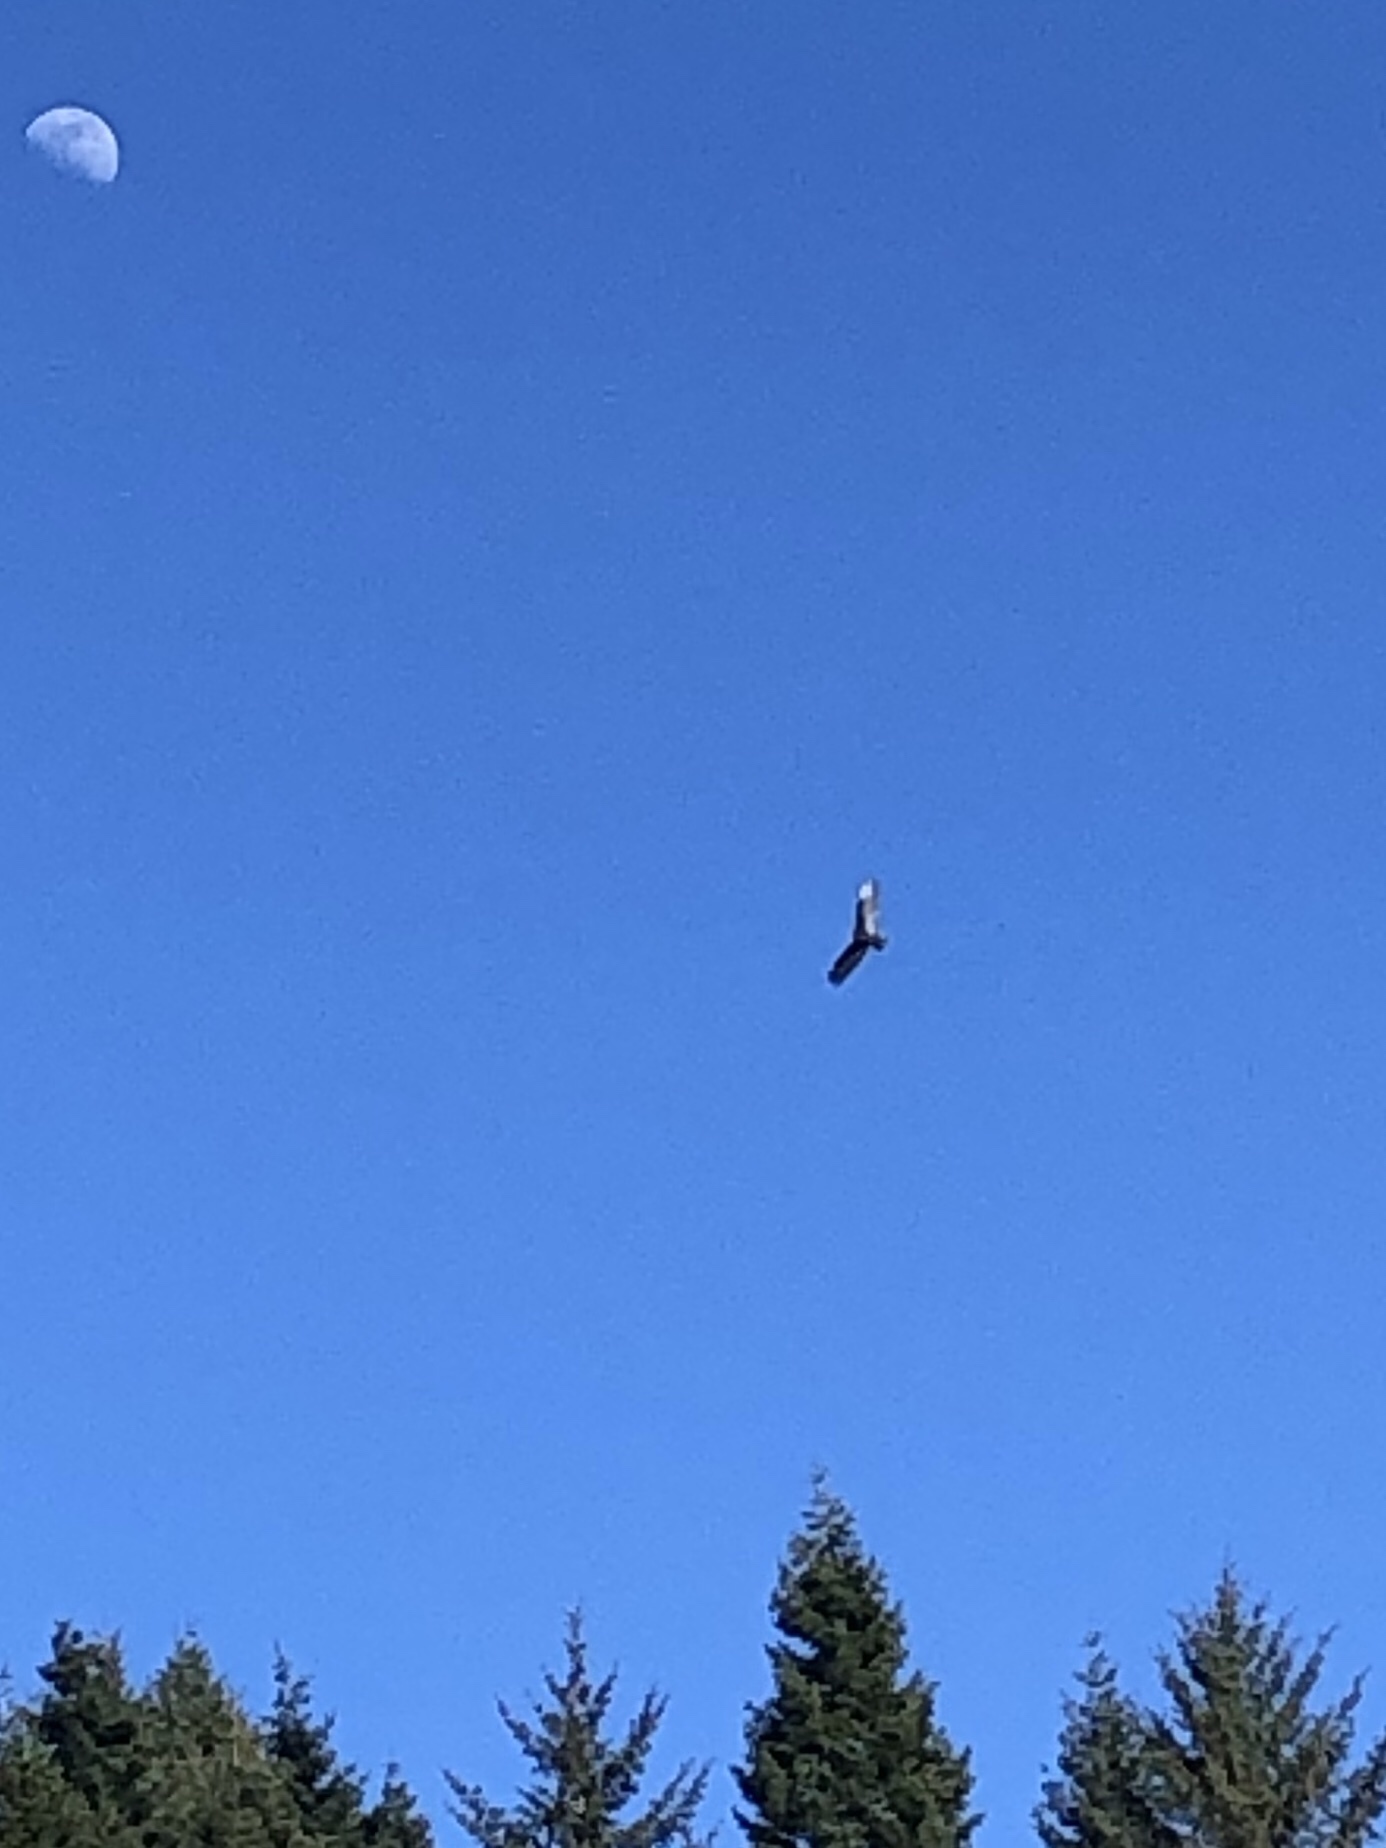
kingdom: Animalia
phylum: Chordata
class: Aves
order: Accipitriformes
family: Cathartidae
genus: Cathartes
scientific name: Cathartes aura
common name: Turkey vulture
